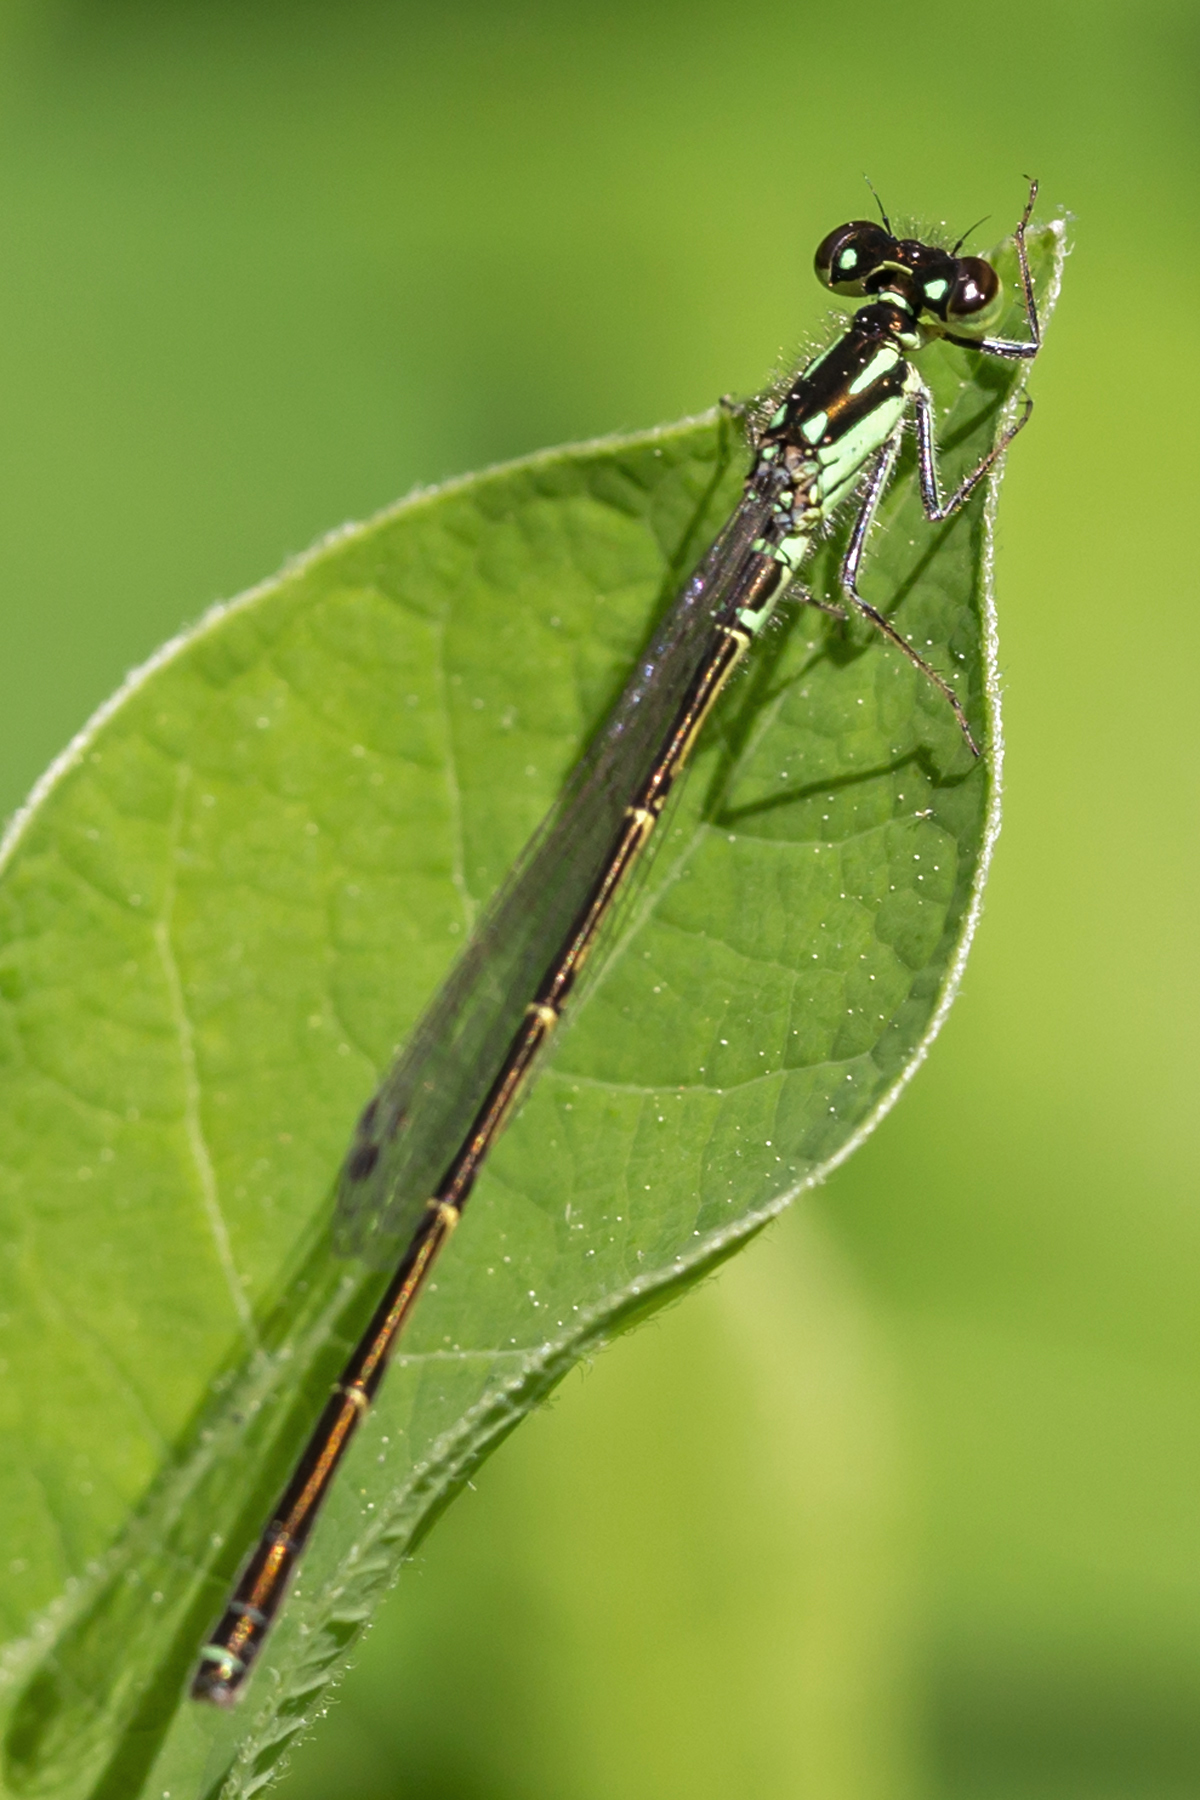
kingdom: Animalia
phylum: Arthropoda
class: Insecta
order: Odonata
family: Coenagrionidae
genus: Ischnura
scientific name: Ischnura posita
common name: Fragile forktail
